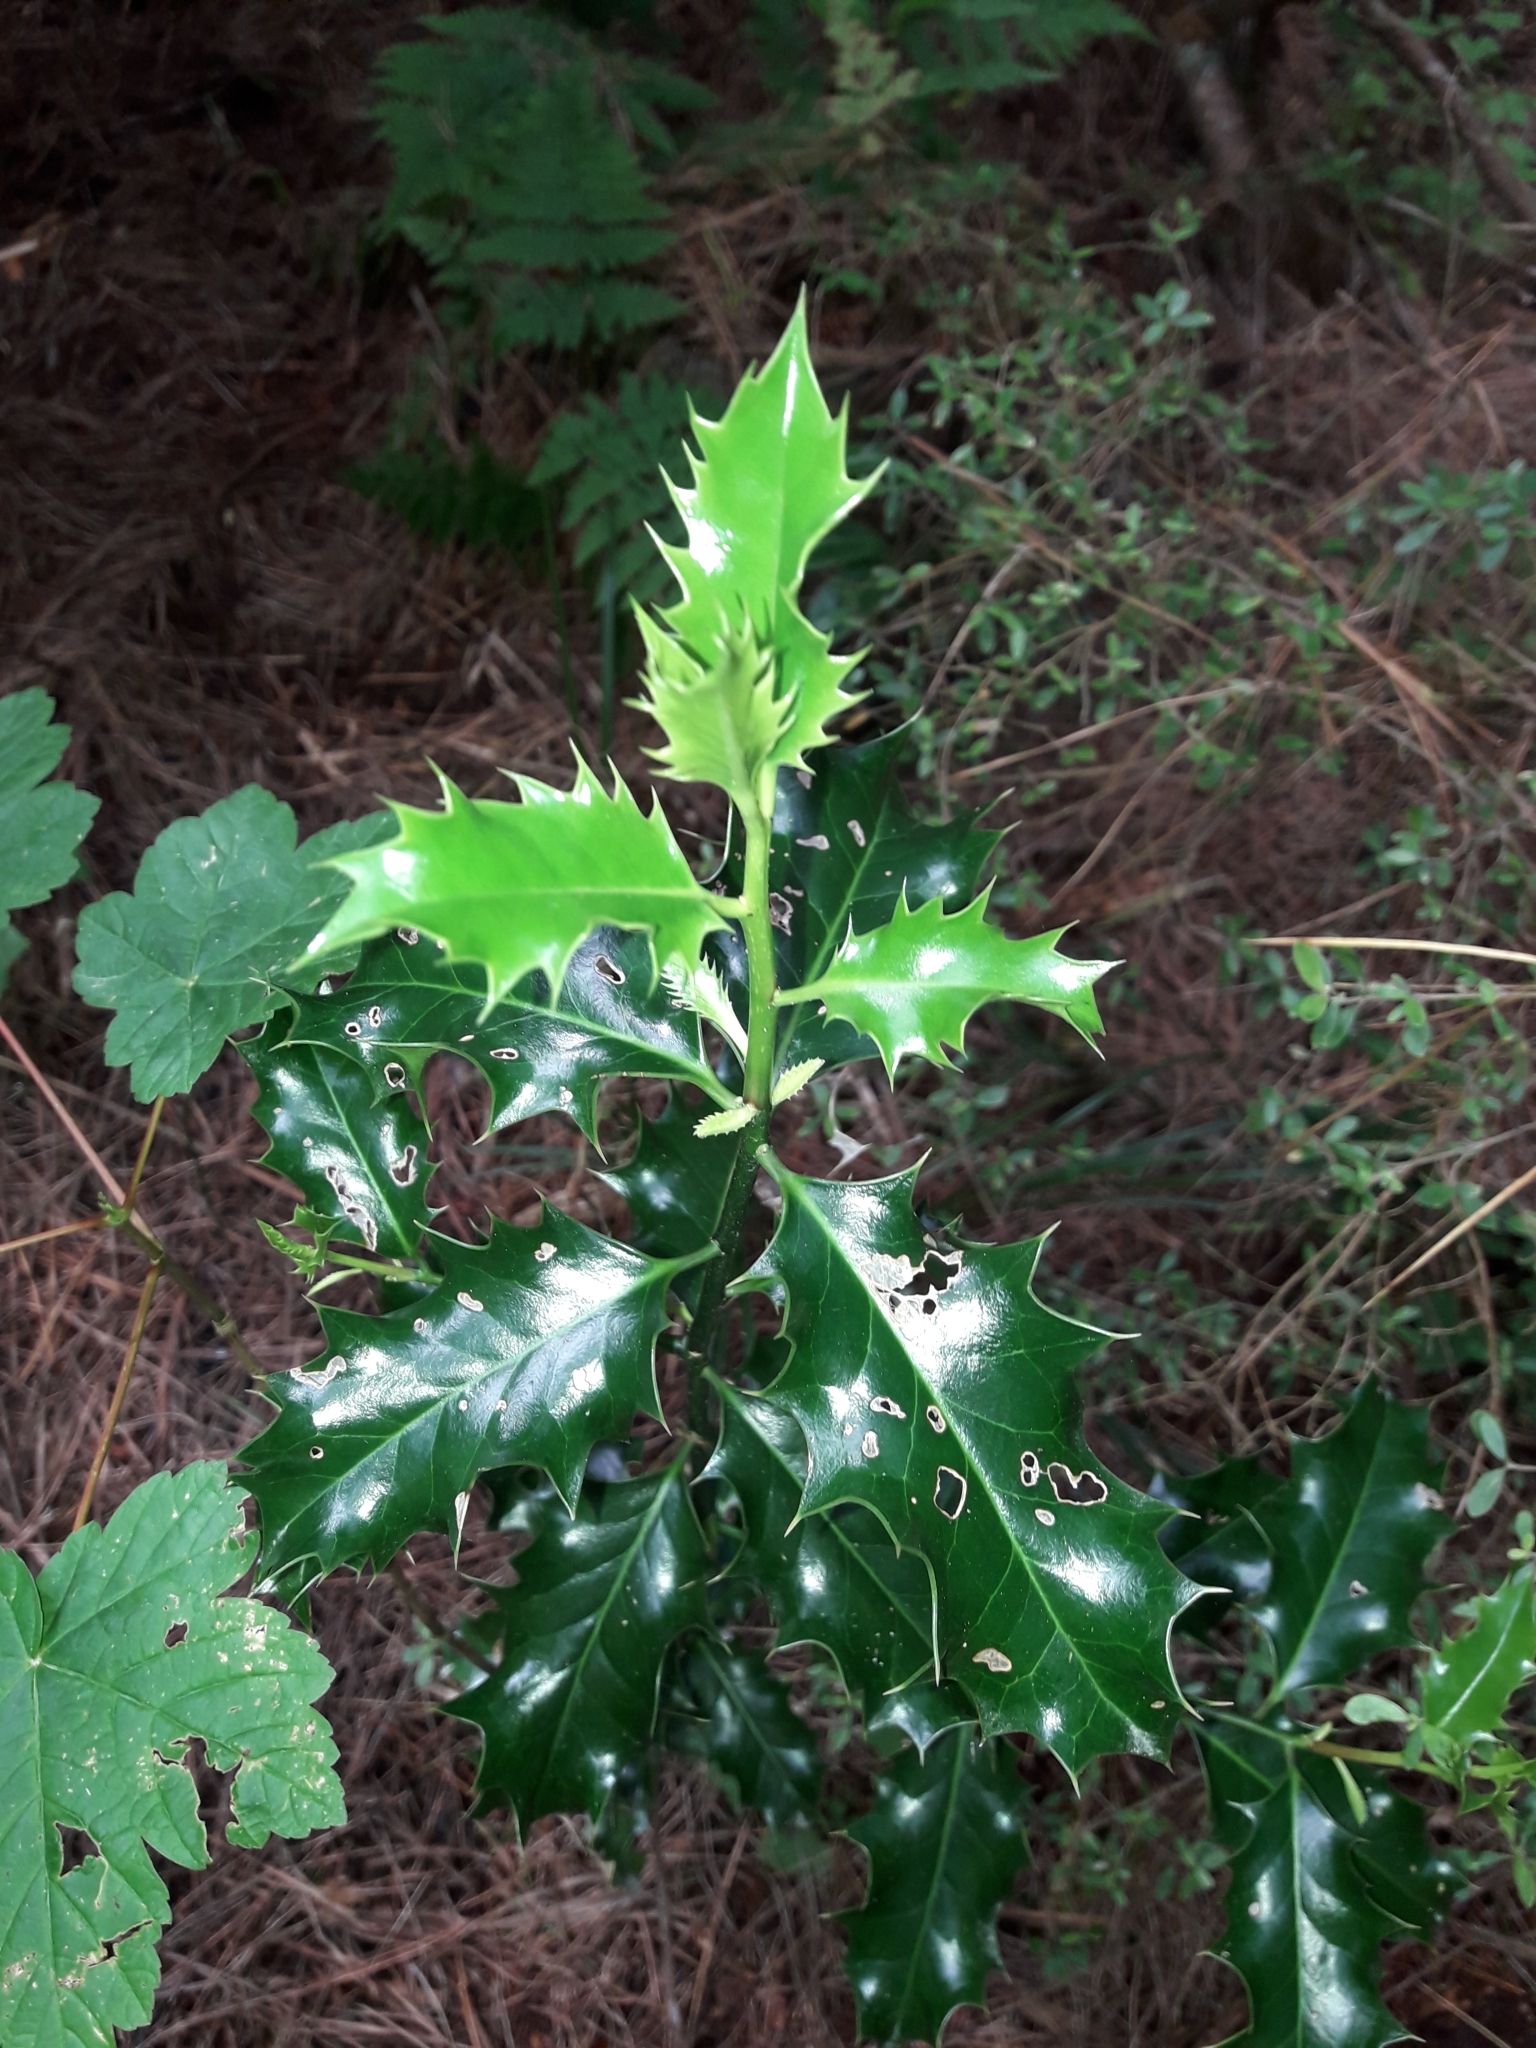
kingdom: Plantae
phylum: Tracheophyta
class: Magnoliopsida
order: Aquifoliales
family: Aquifoliaceae
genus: Ilex
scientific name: Ilex aquifolium
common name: English holly
